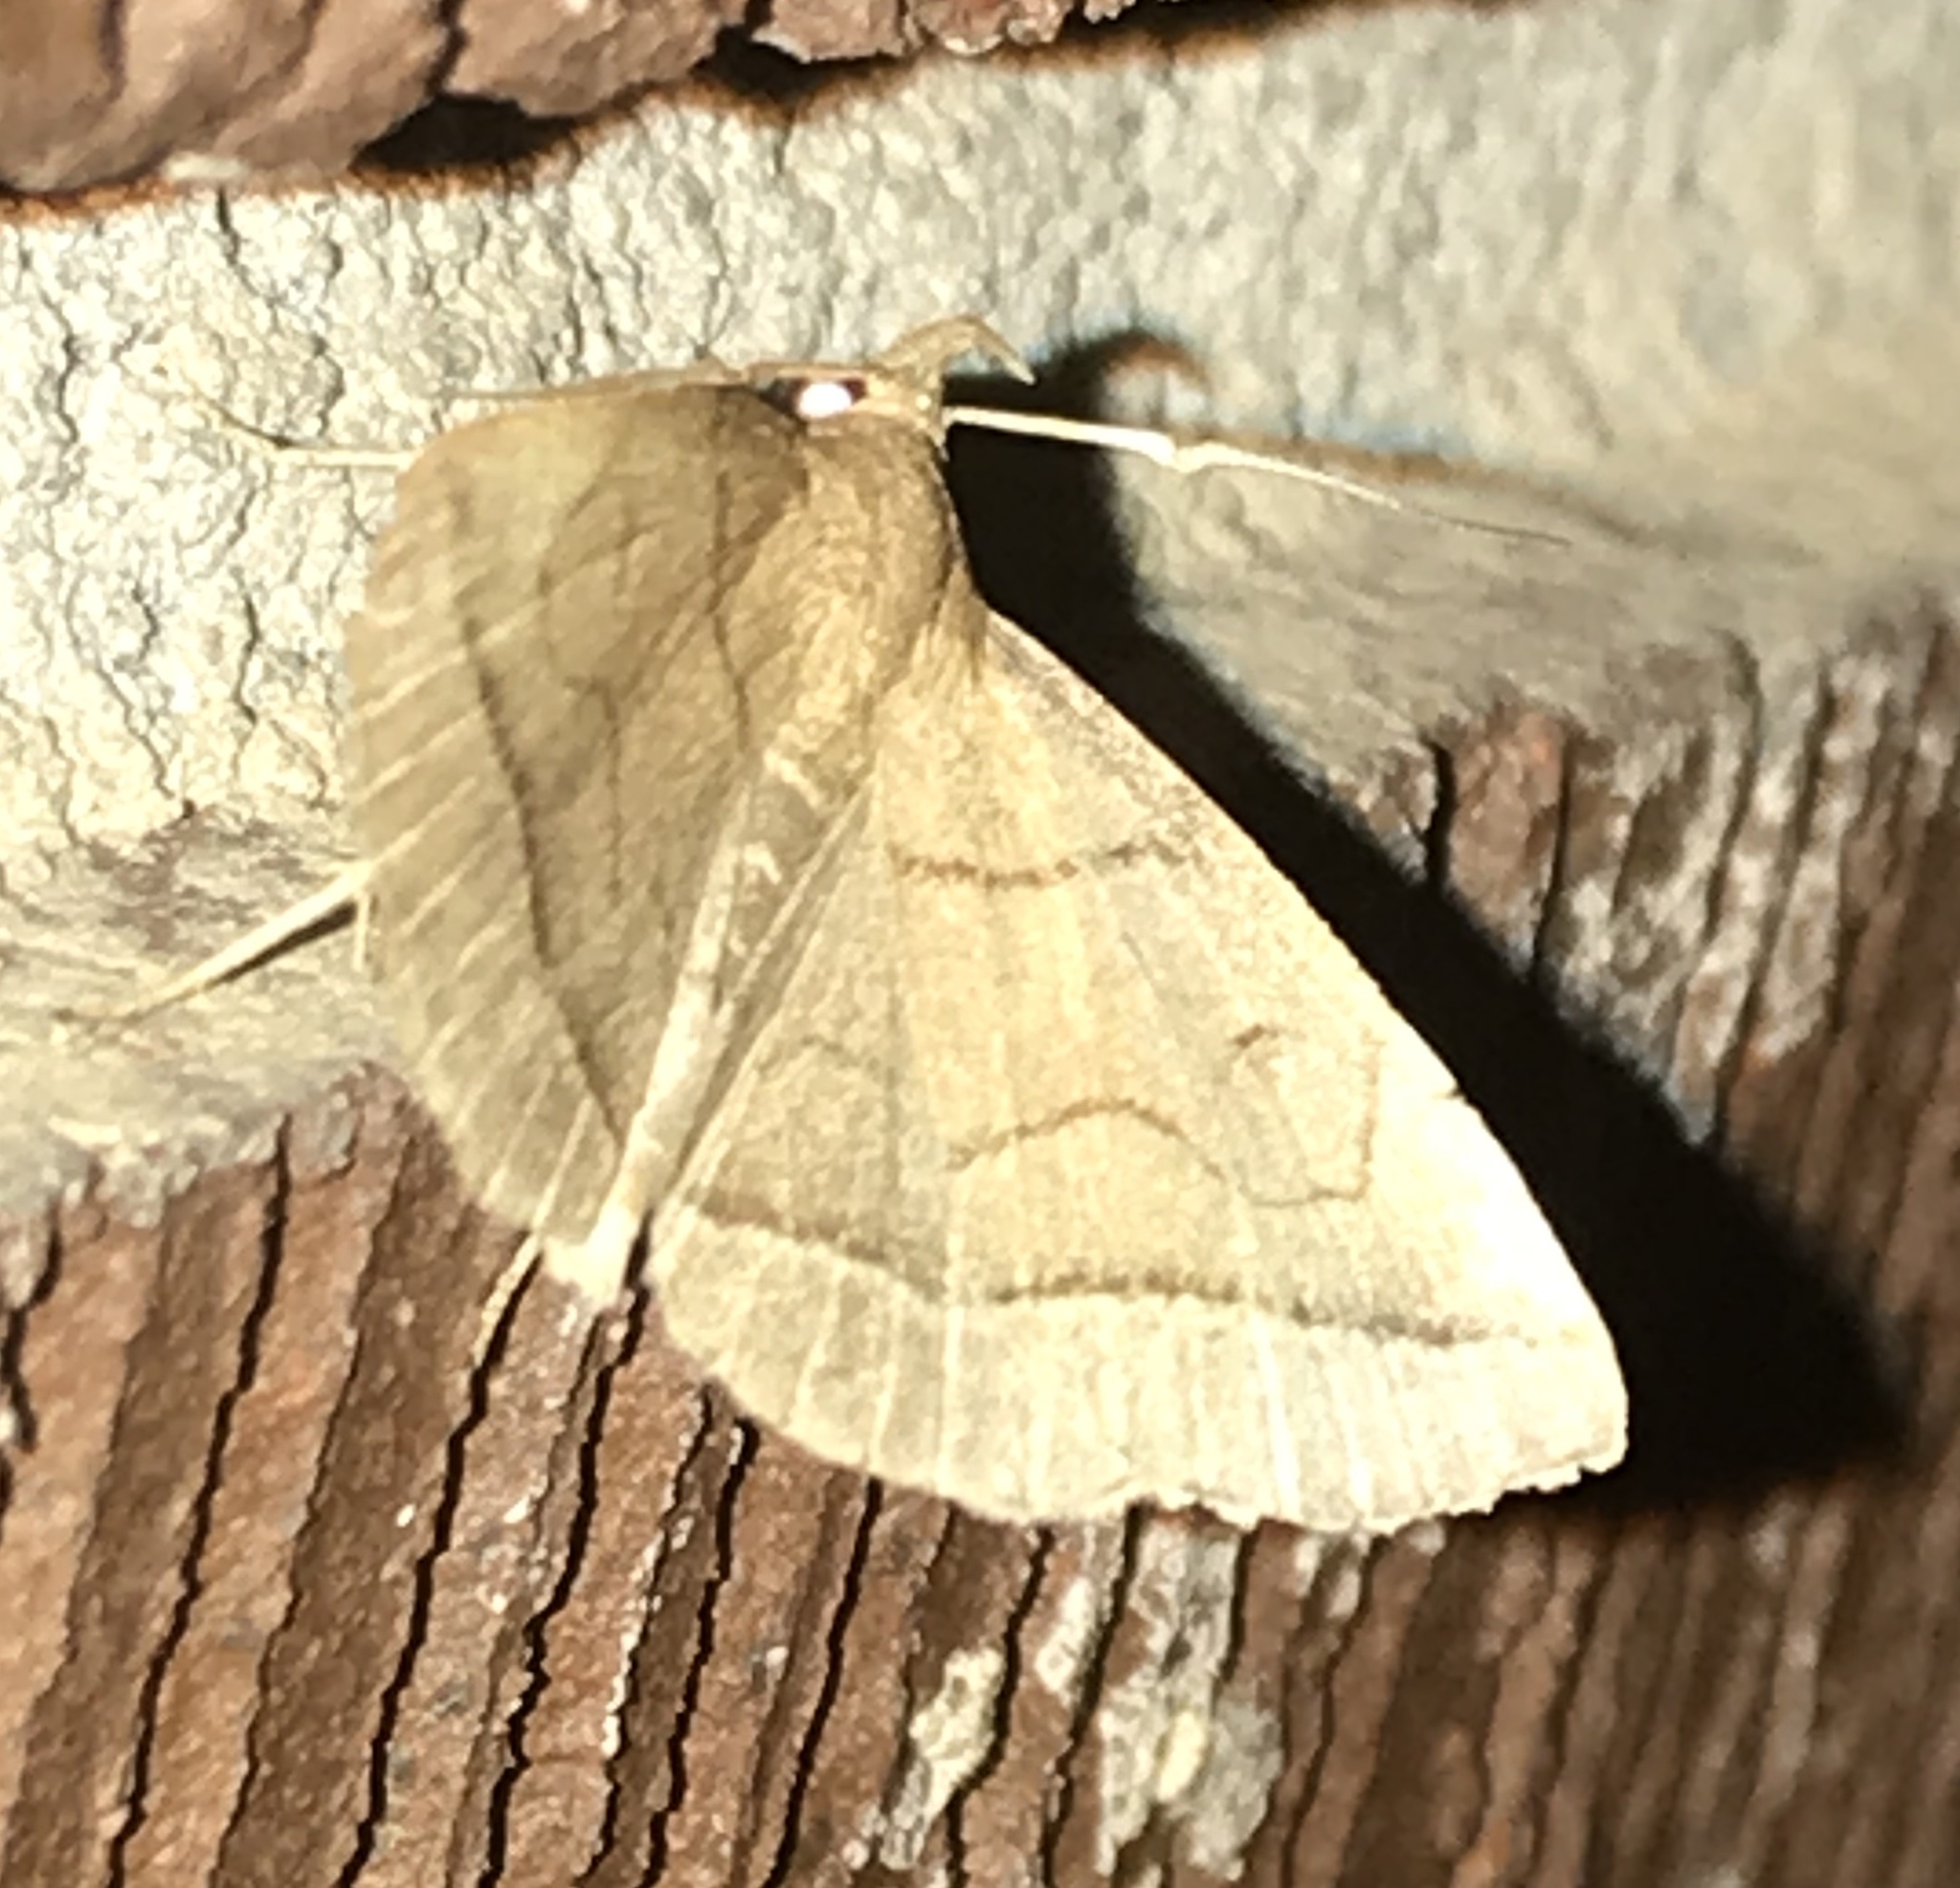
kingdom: Animalia
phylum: Arthropoda
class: Insecta
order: Lepidoptera
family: Erebidae
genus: Zanclognatha
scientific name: Zanclognatha cruralis
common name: Early fan-foot
